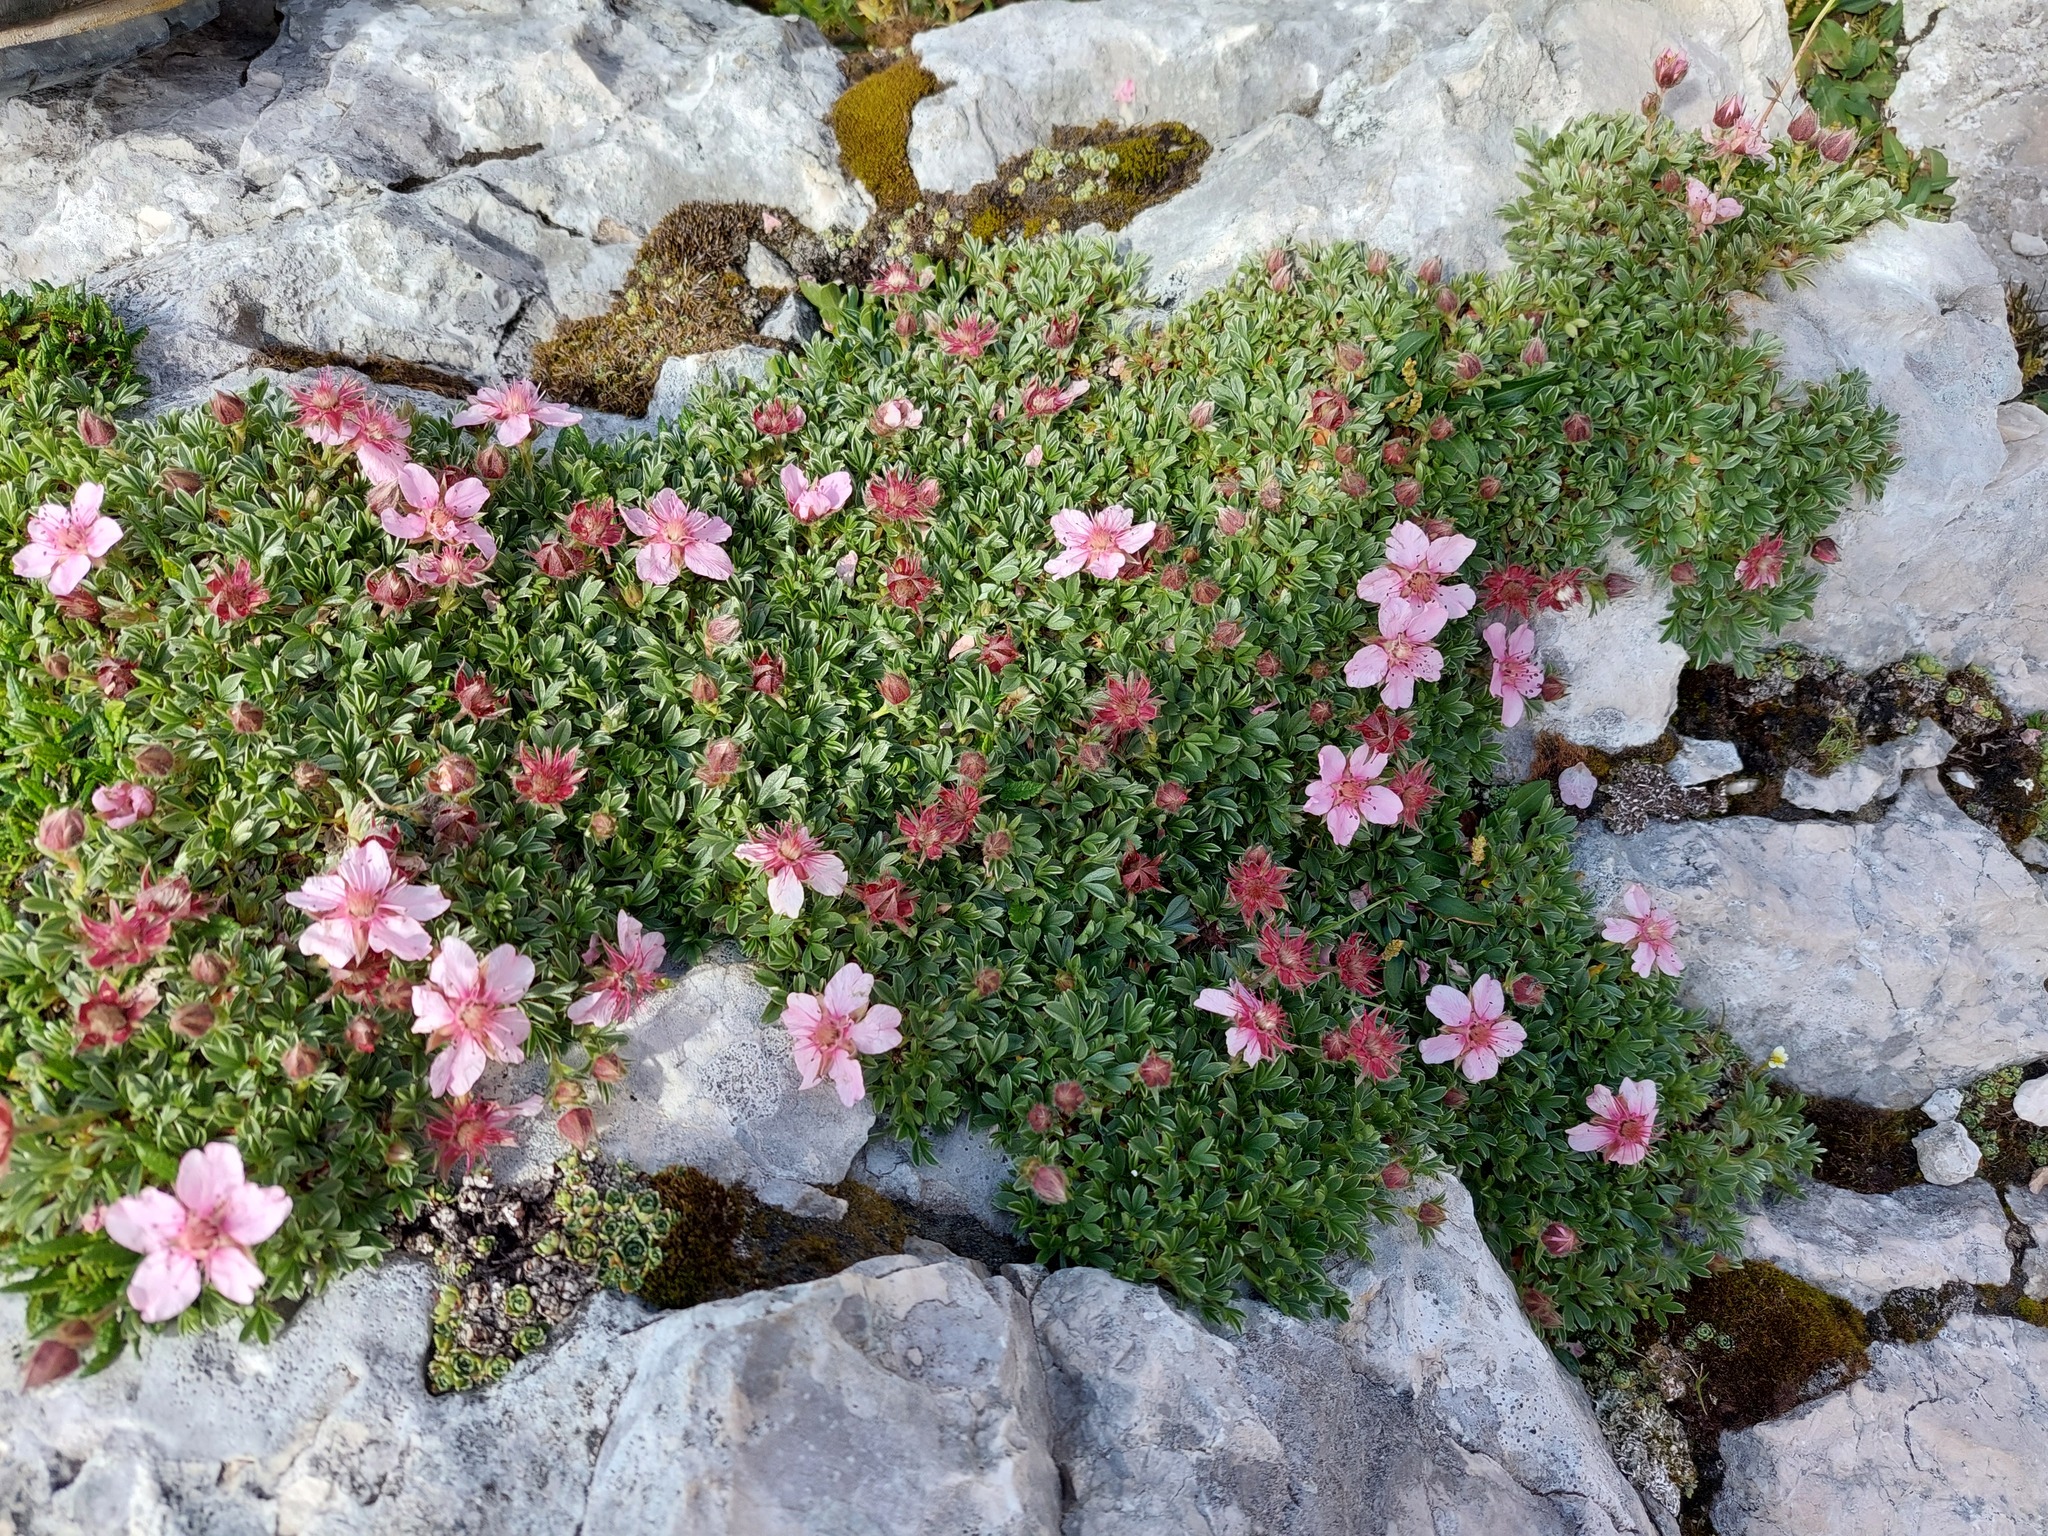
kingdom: Plantae
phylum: Tracheophyta
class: Magnoliopsida
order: Rosales
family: Rosaceae
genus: Potentilla
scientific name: Potentilla nitida
